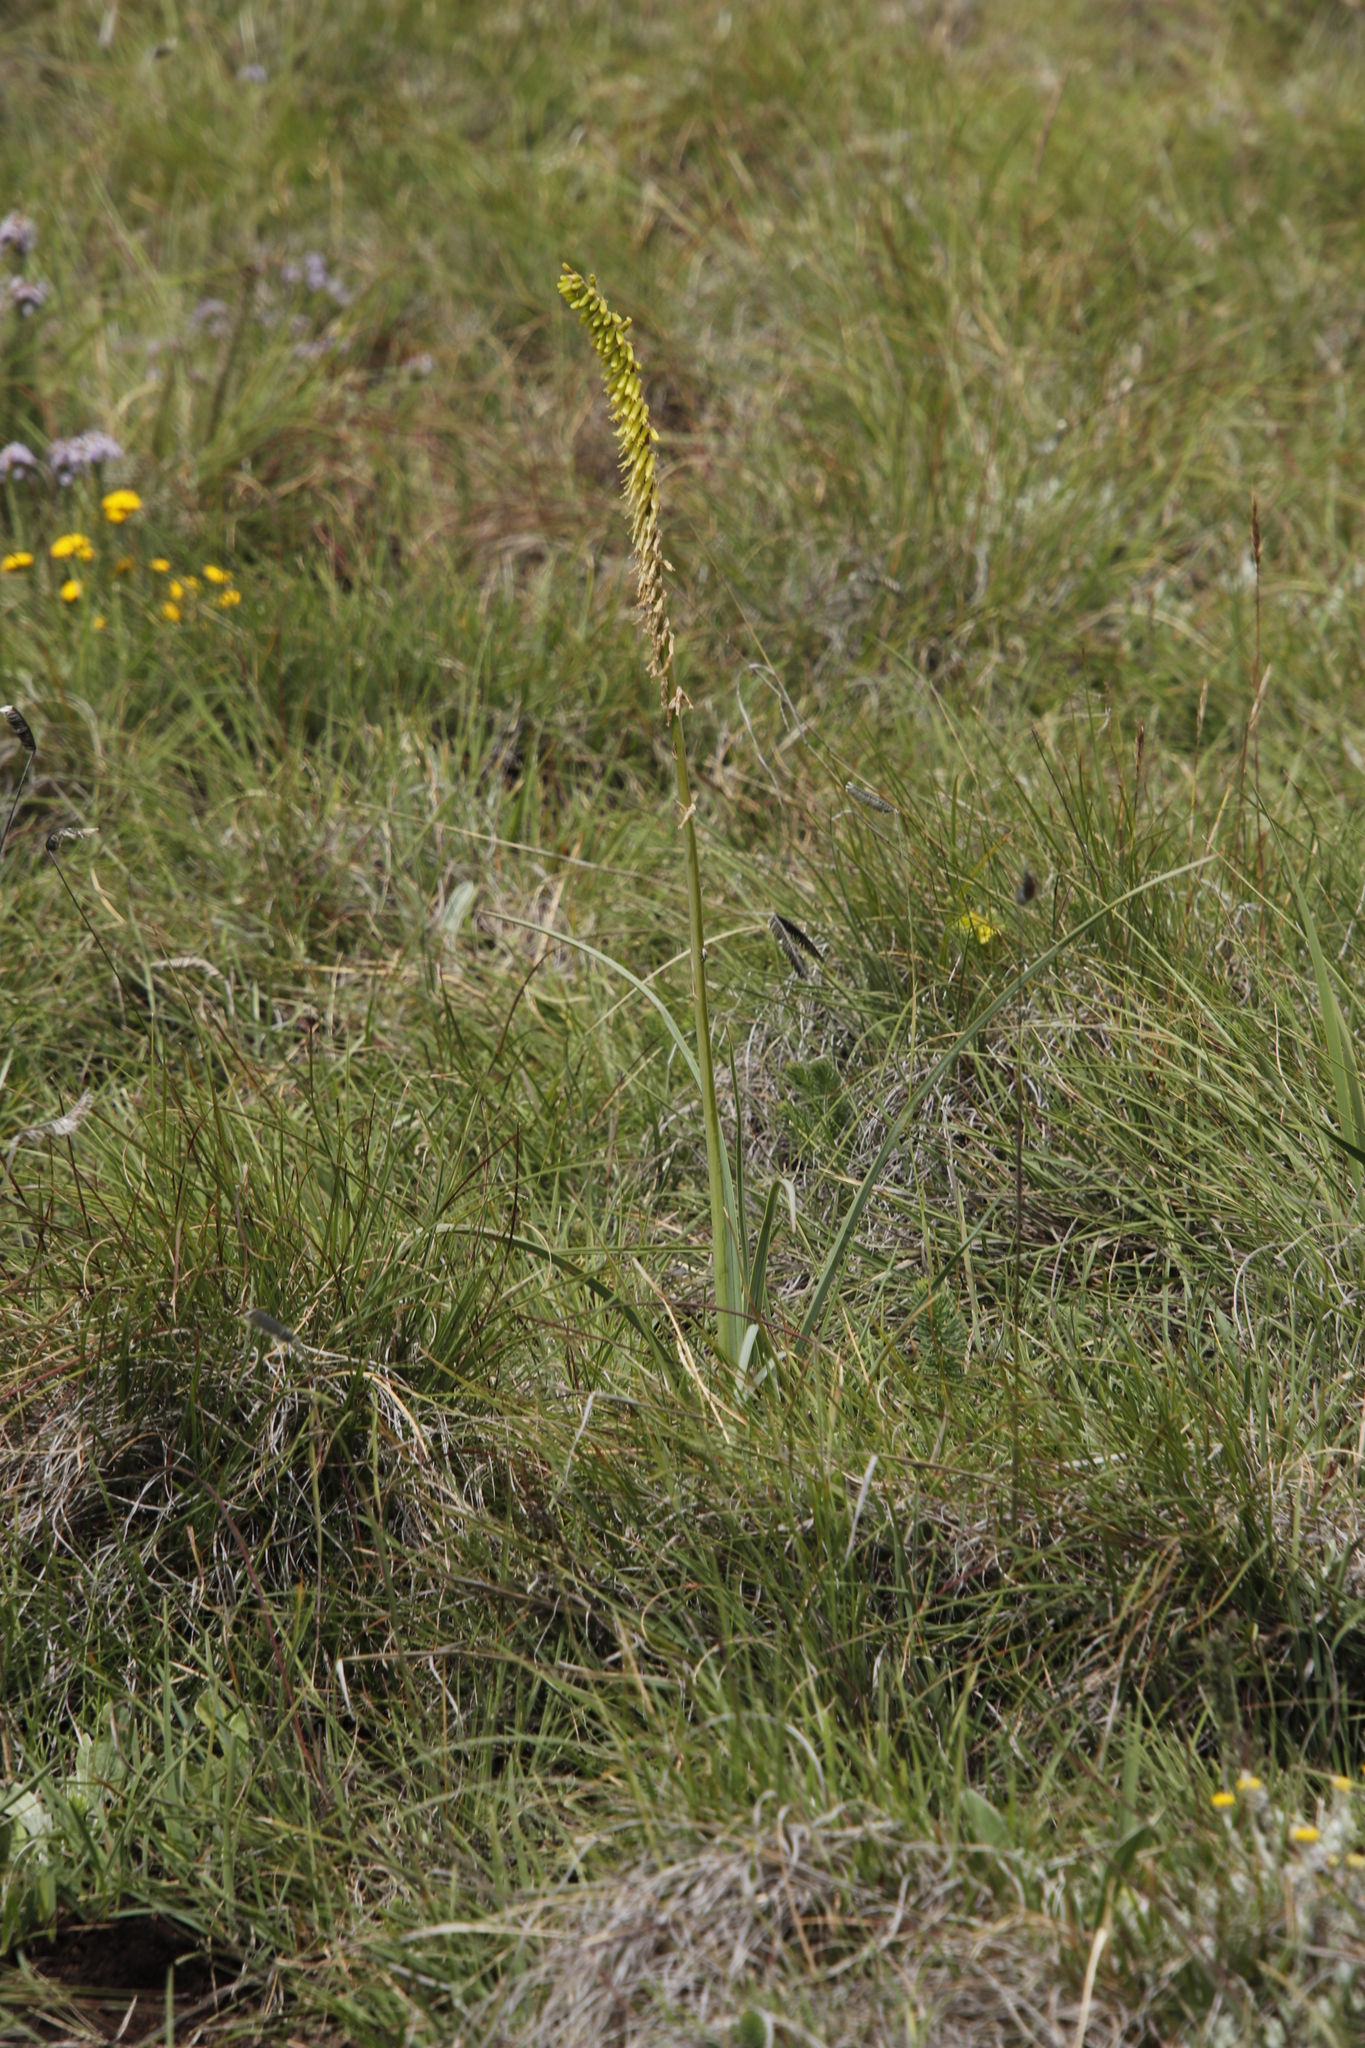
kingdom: Plantae
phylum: Tracheophyta
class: Liliopsida
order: Asparagales
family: Asphodelaceae
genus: Kniphofia
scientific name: Kniphofia parviflora
